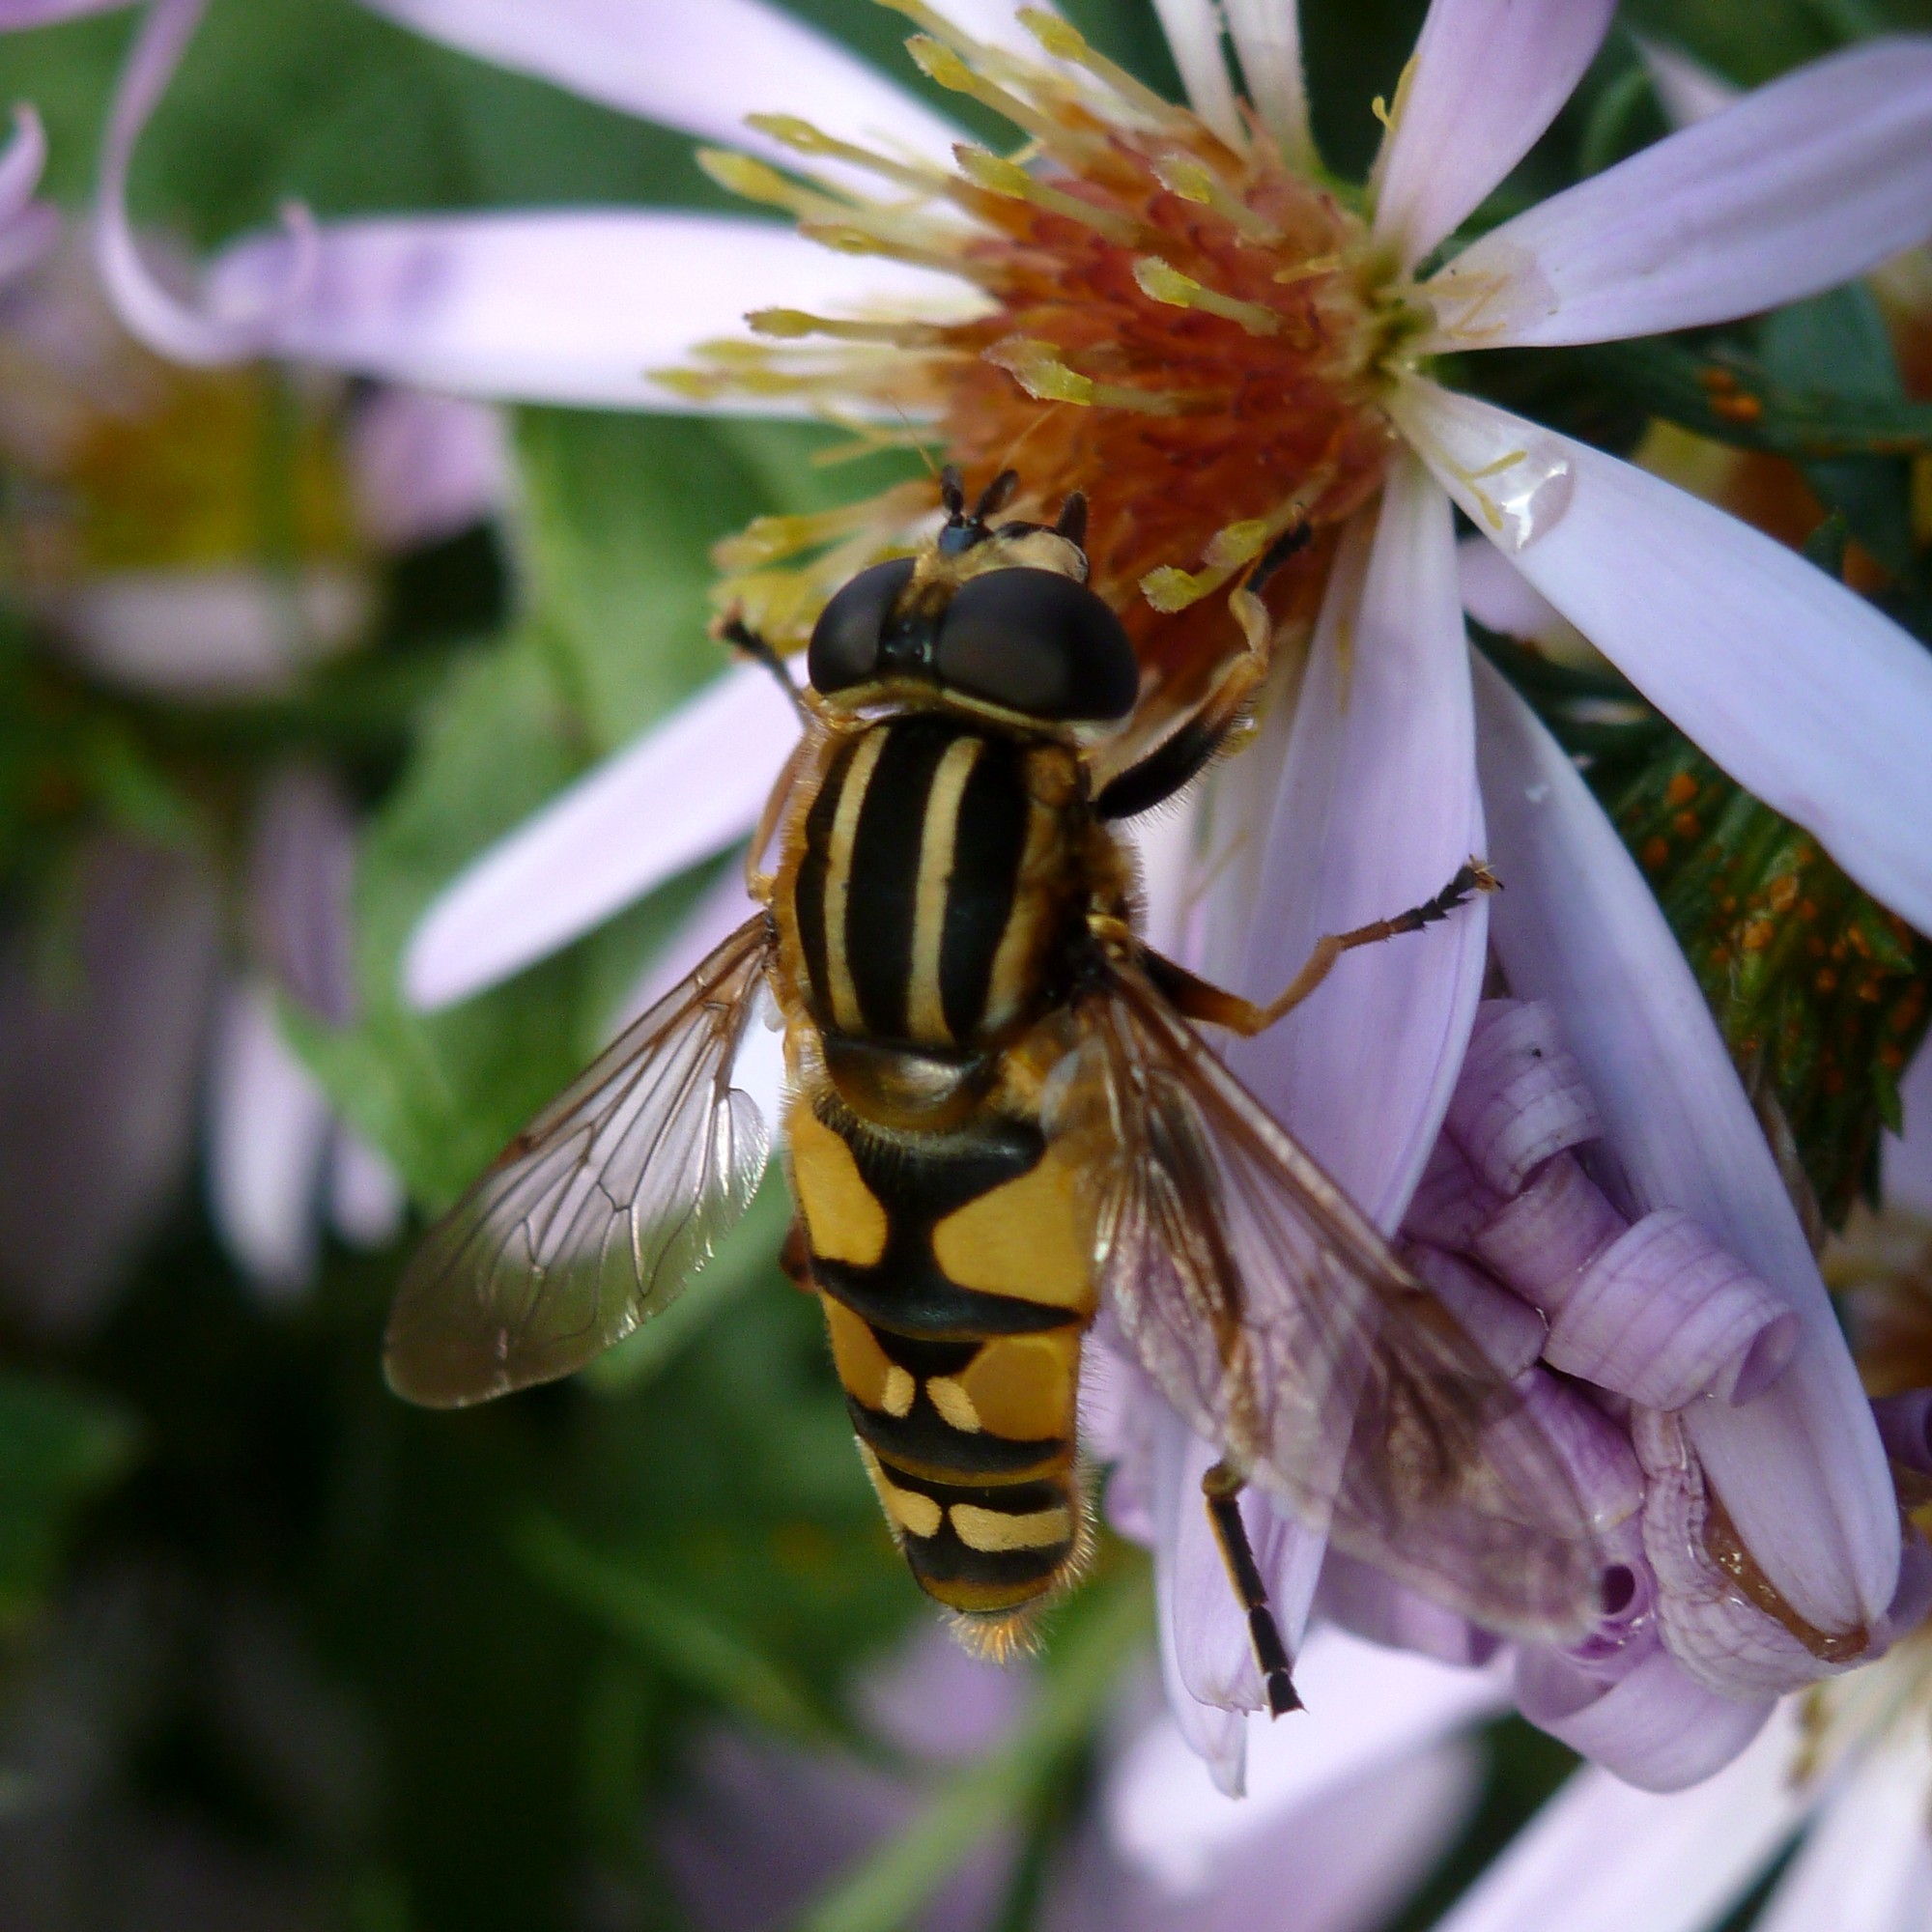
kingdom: Animalia
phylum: Arthropoda
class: Insecta
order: Diptera
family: Syrphidae
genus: Helophilus
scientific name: Helophilus pendulus
